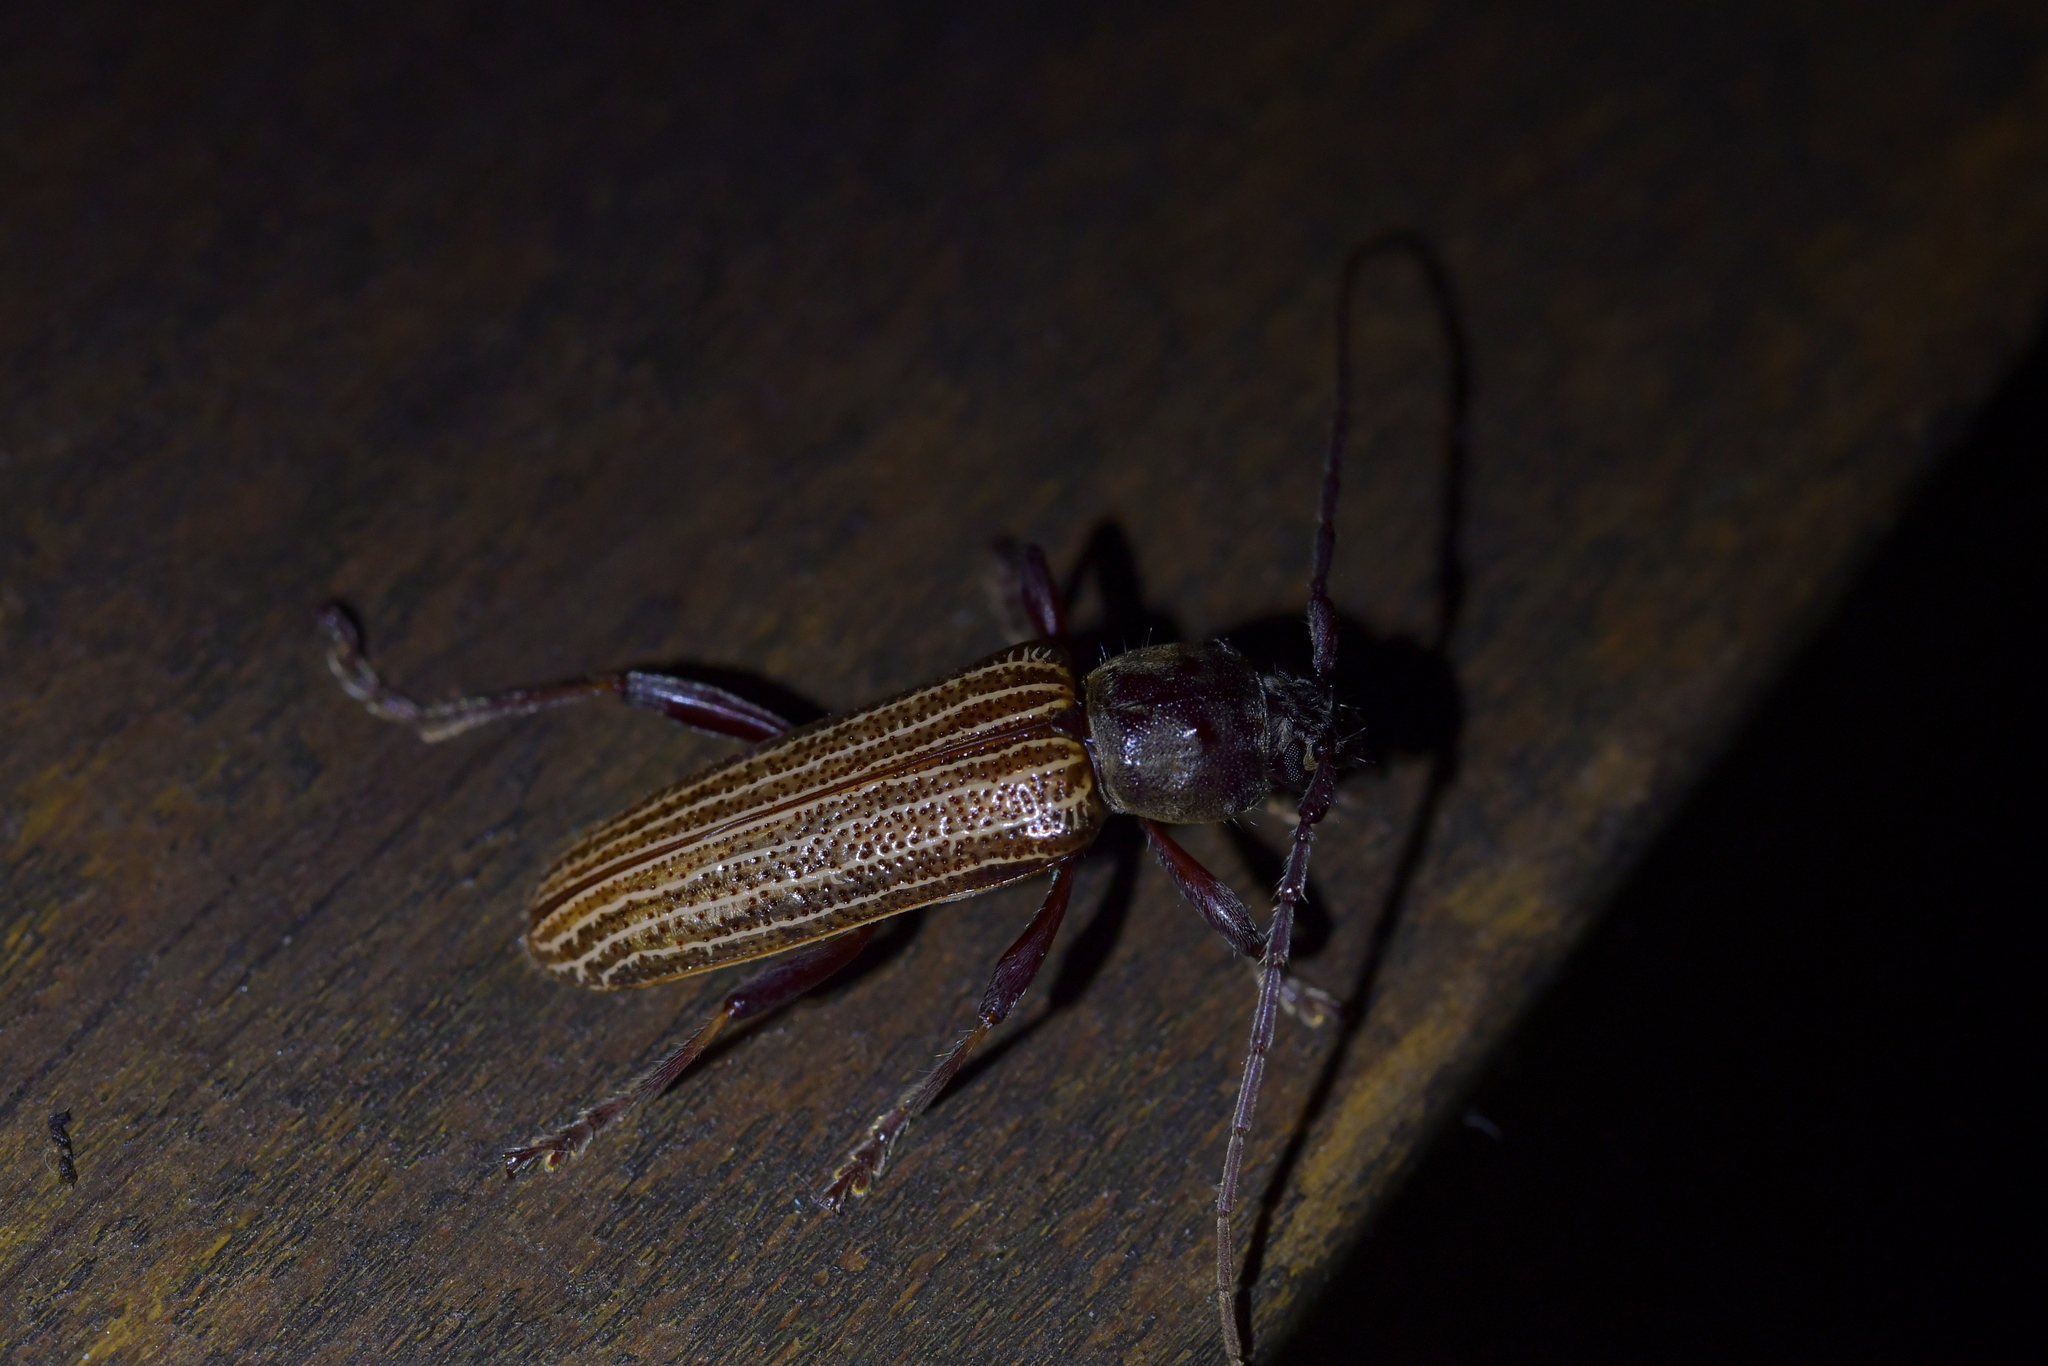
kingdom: Animalia
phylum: Arthropoda
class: Insecta
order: Coleoptera
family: Cerambycidae
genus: Xuthodes
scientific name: Xuthodes batesi
